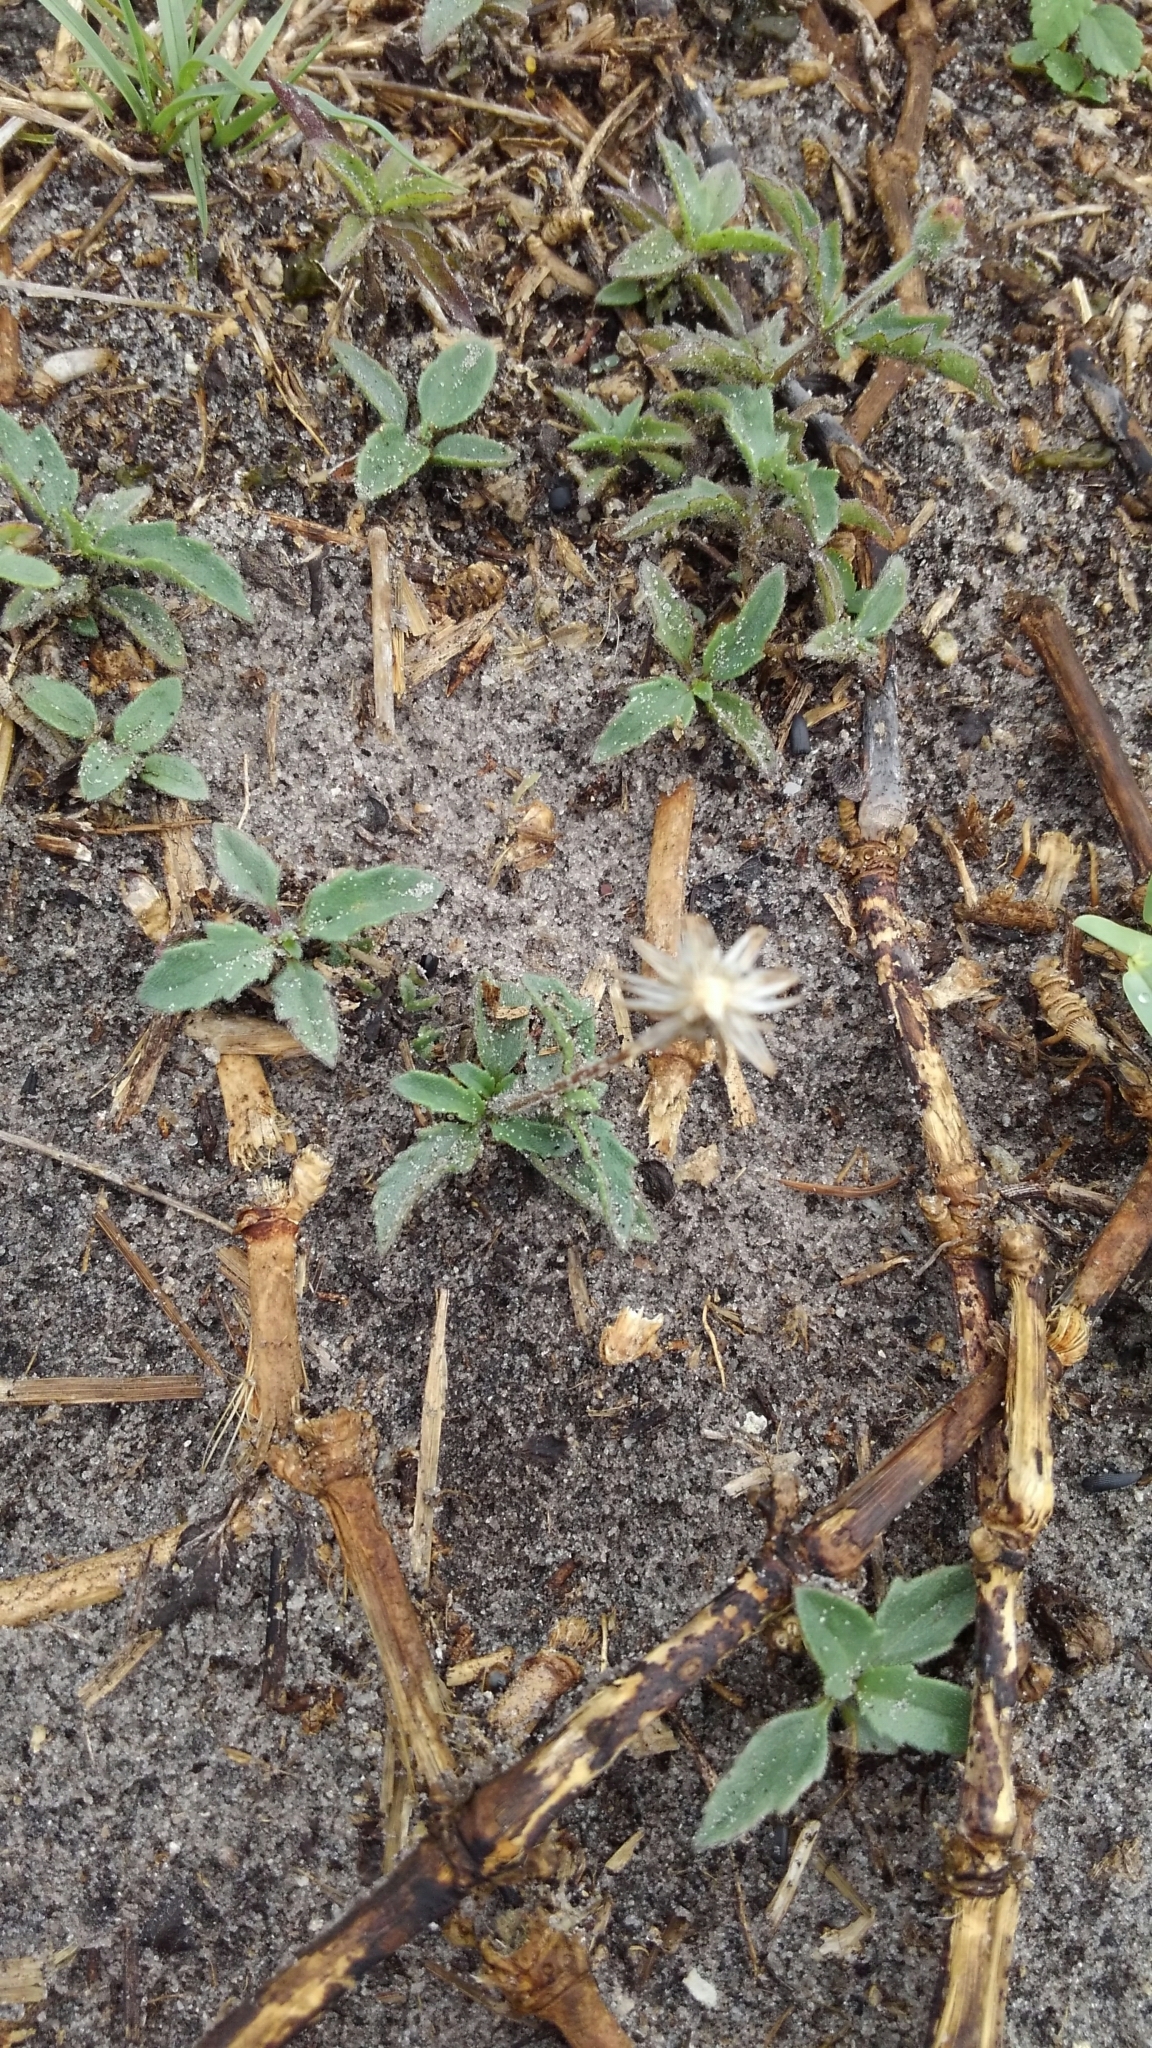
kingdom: Plantae
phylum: Tracheophyta
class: Magnoliopsida
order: Asterales
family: Asteraceae
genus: Tridax
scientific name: Tridax procumbens
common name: Coatbuttons
